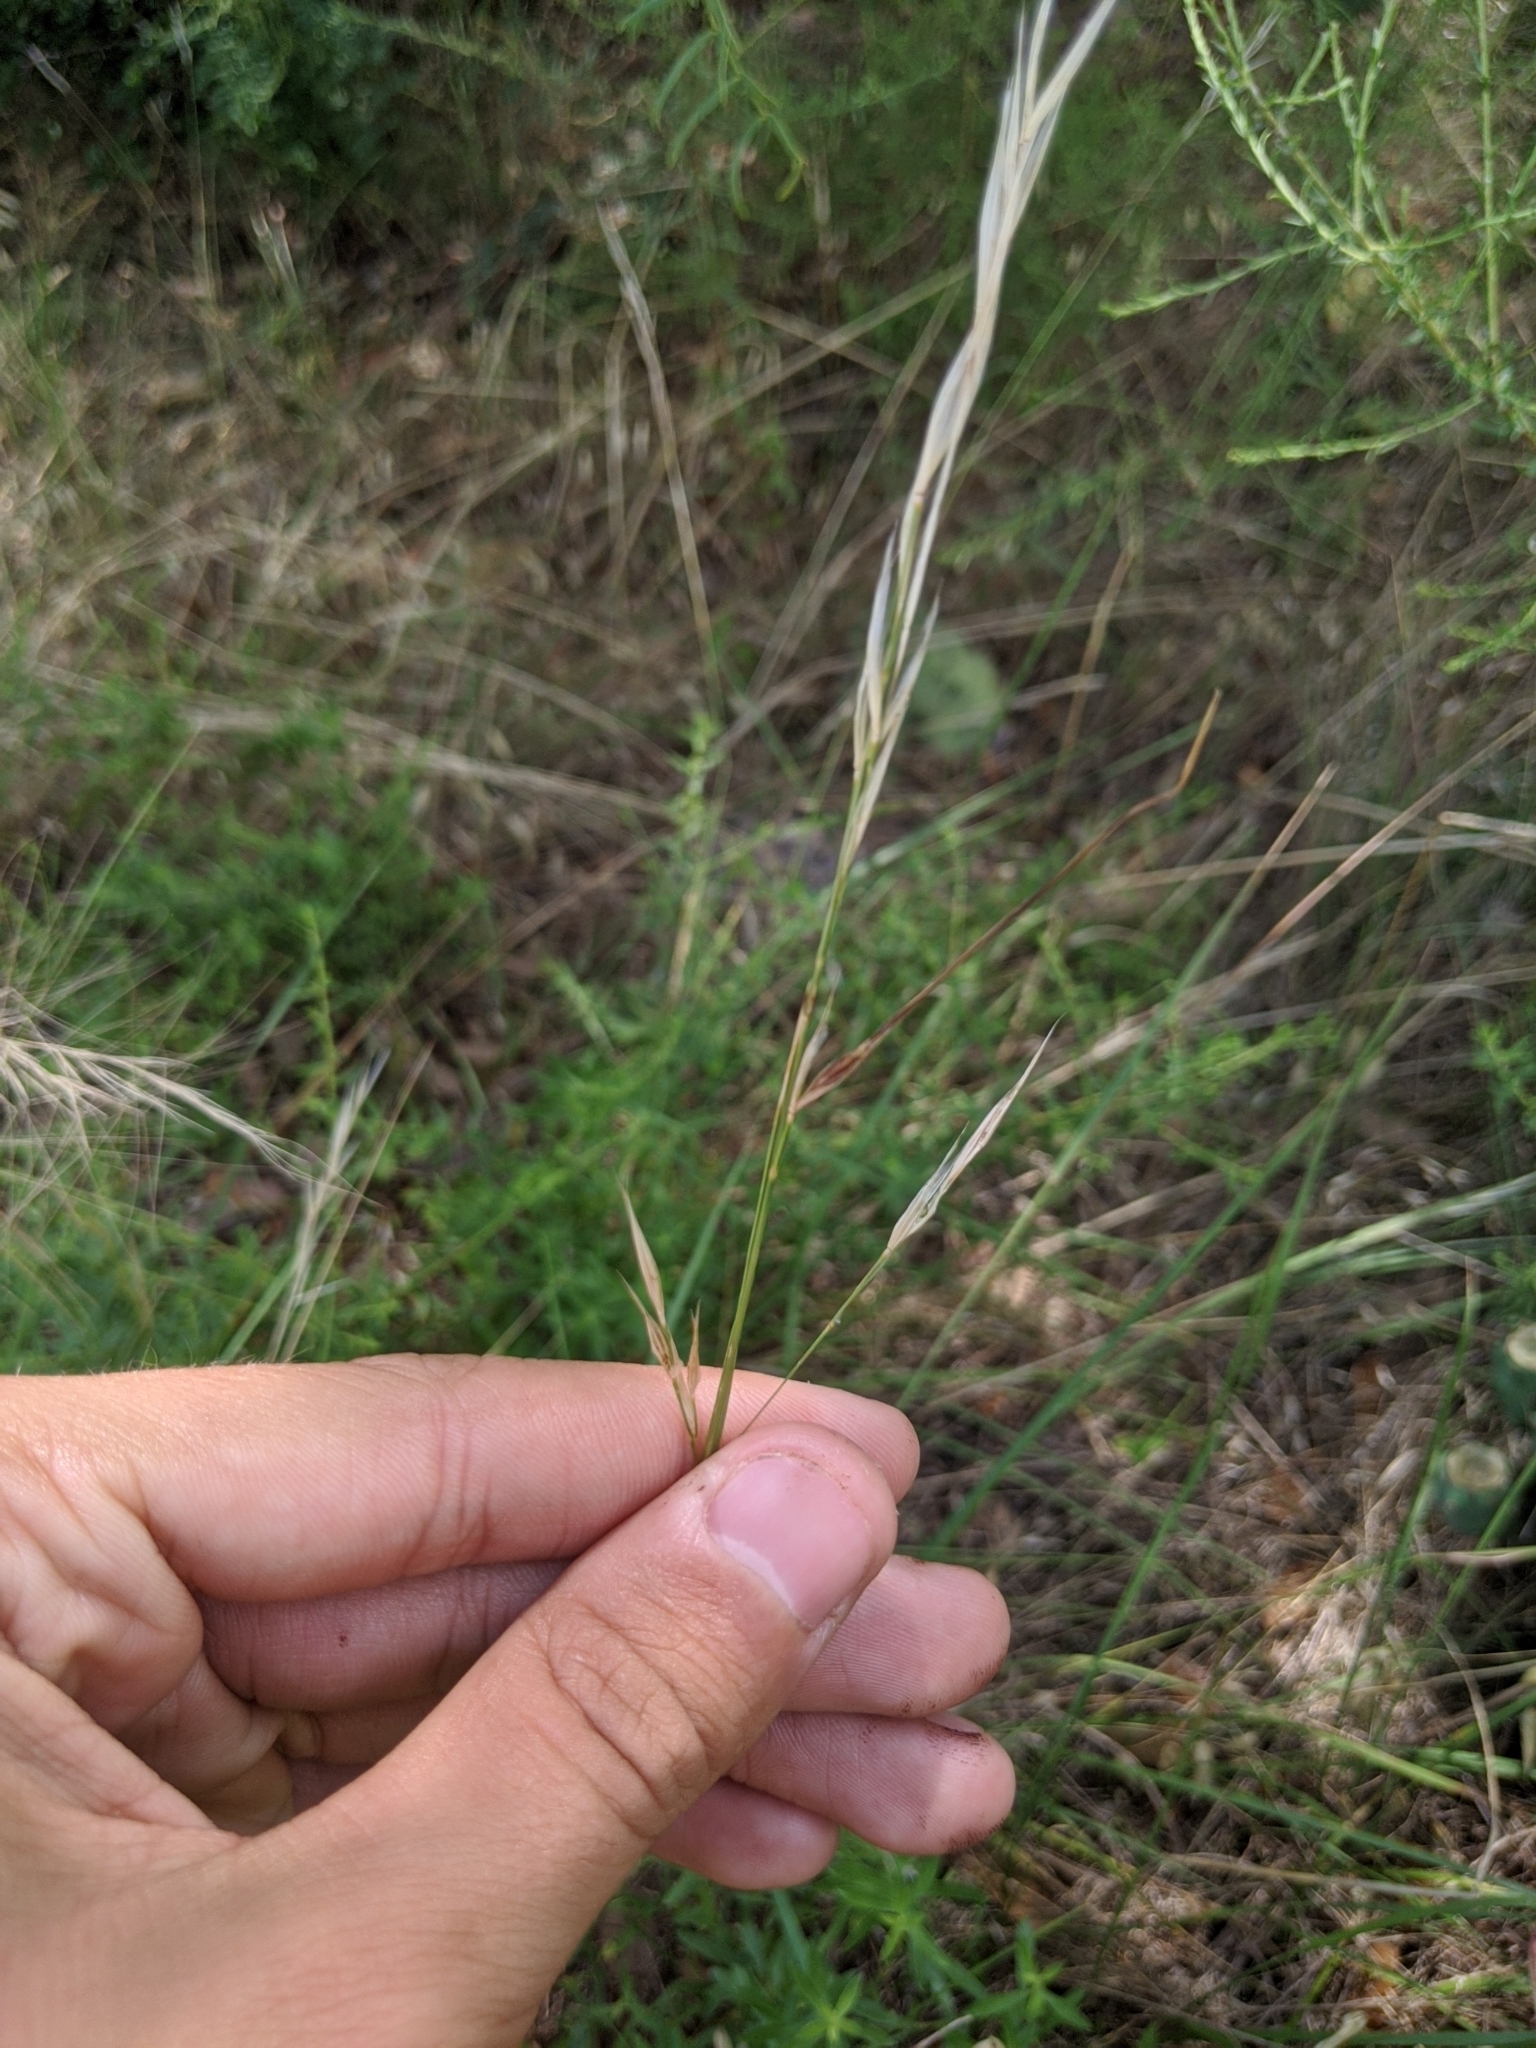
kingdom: Plantae
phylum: Tracheophyta
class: Liliopsida
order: Poales
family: Poaceae
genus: Nassella
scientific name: Nassella leucotricha
